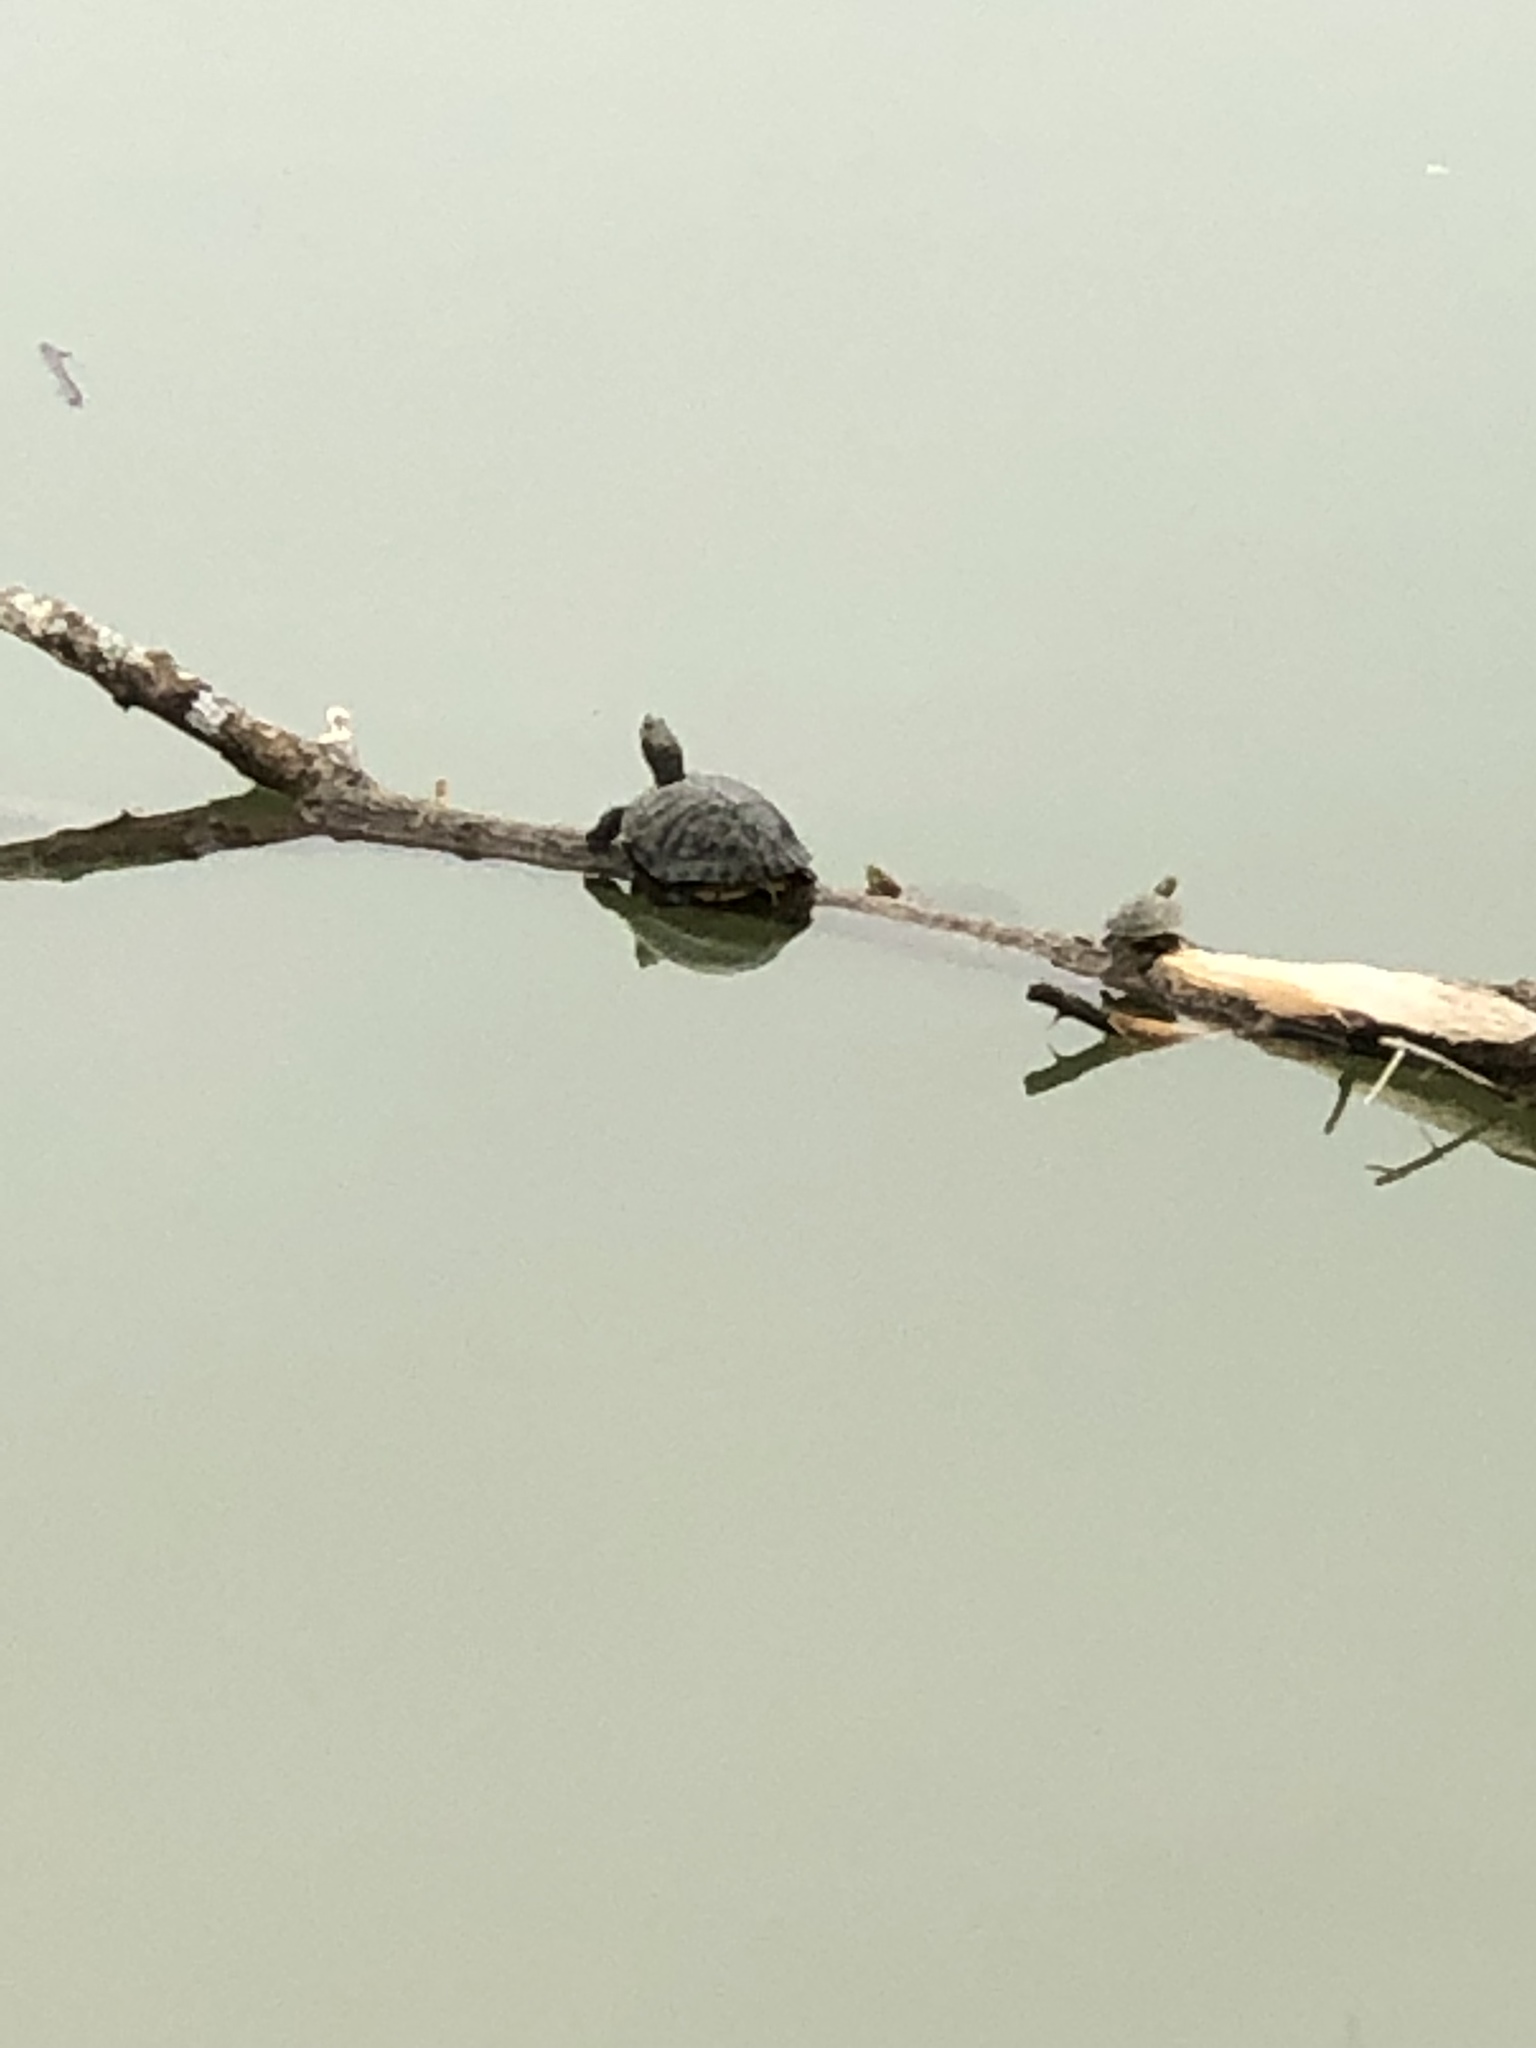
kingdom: Animalia
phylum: Chordata
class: Testudines
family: Emydidae
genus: Trachemys
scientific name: Trachemys scripta
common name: Slider
